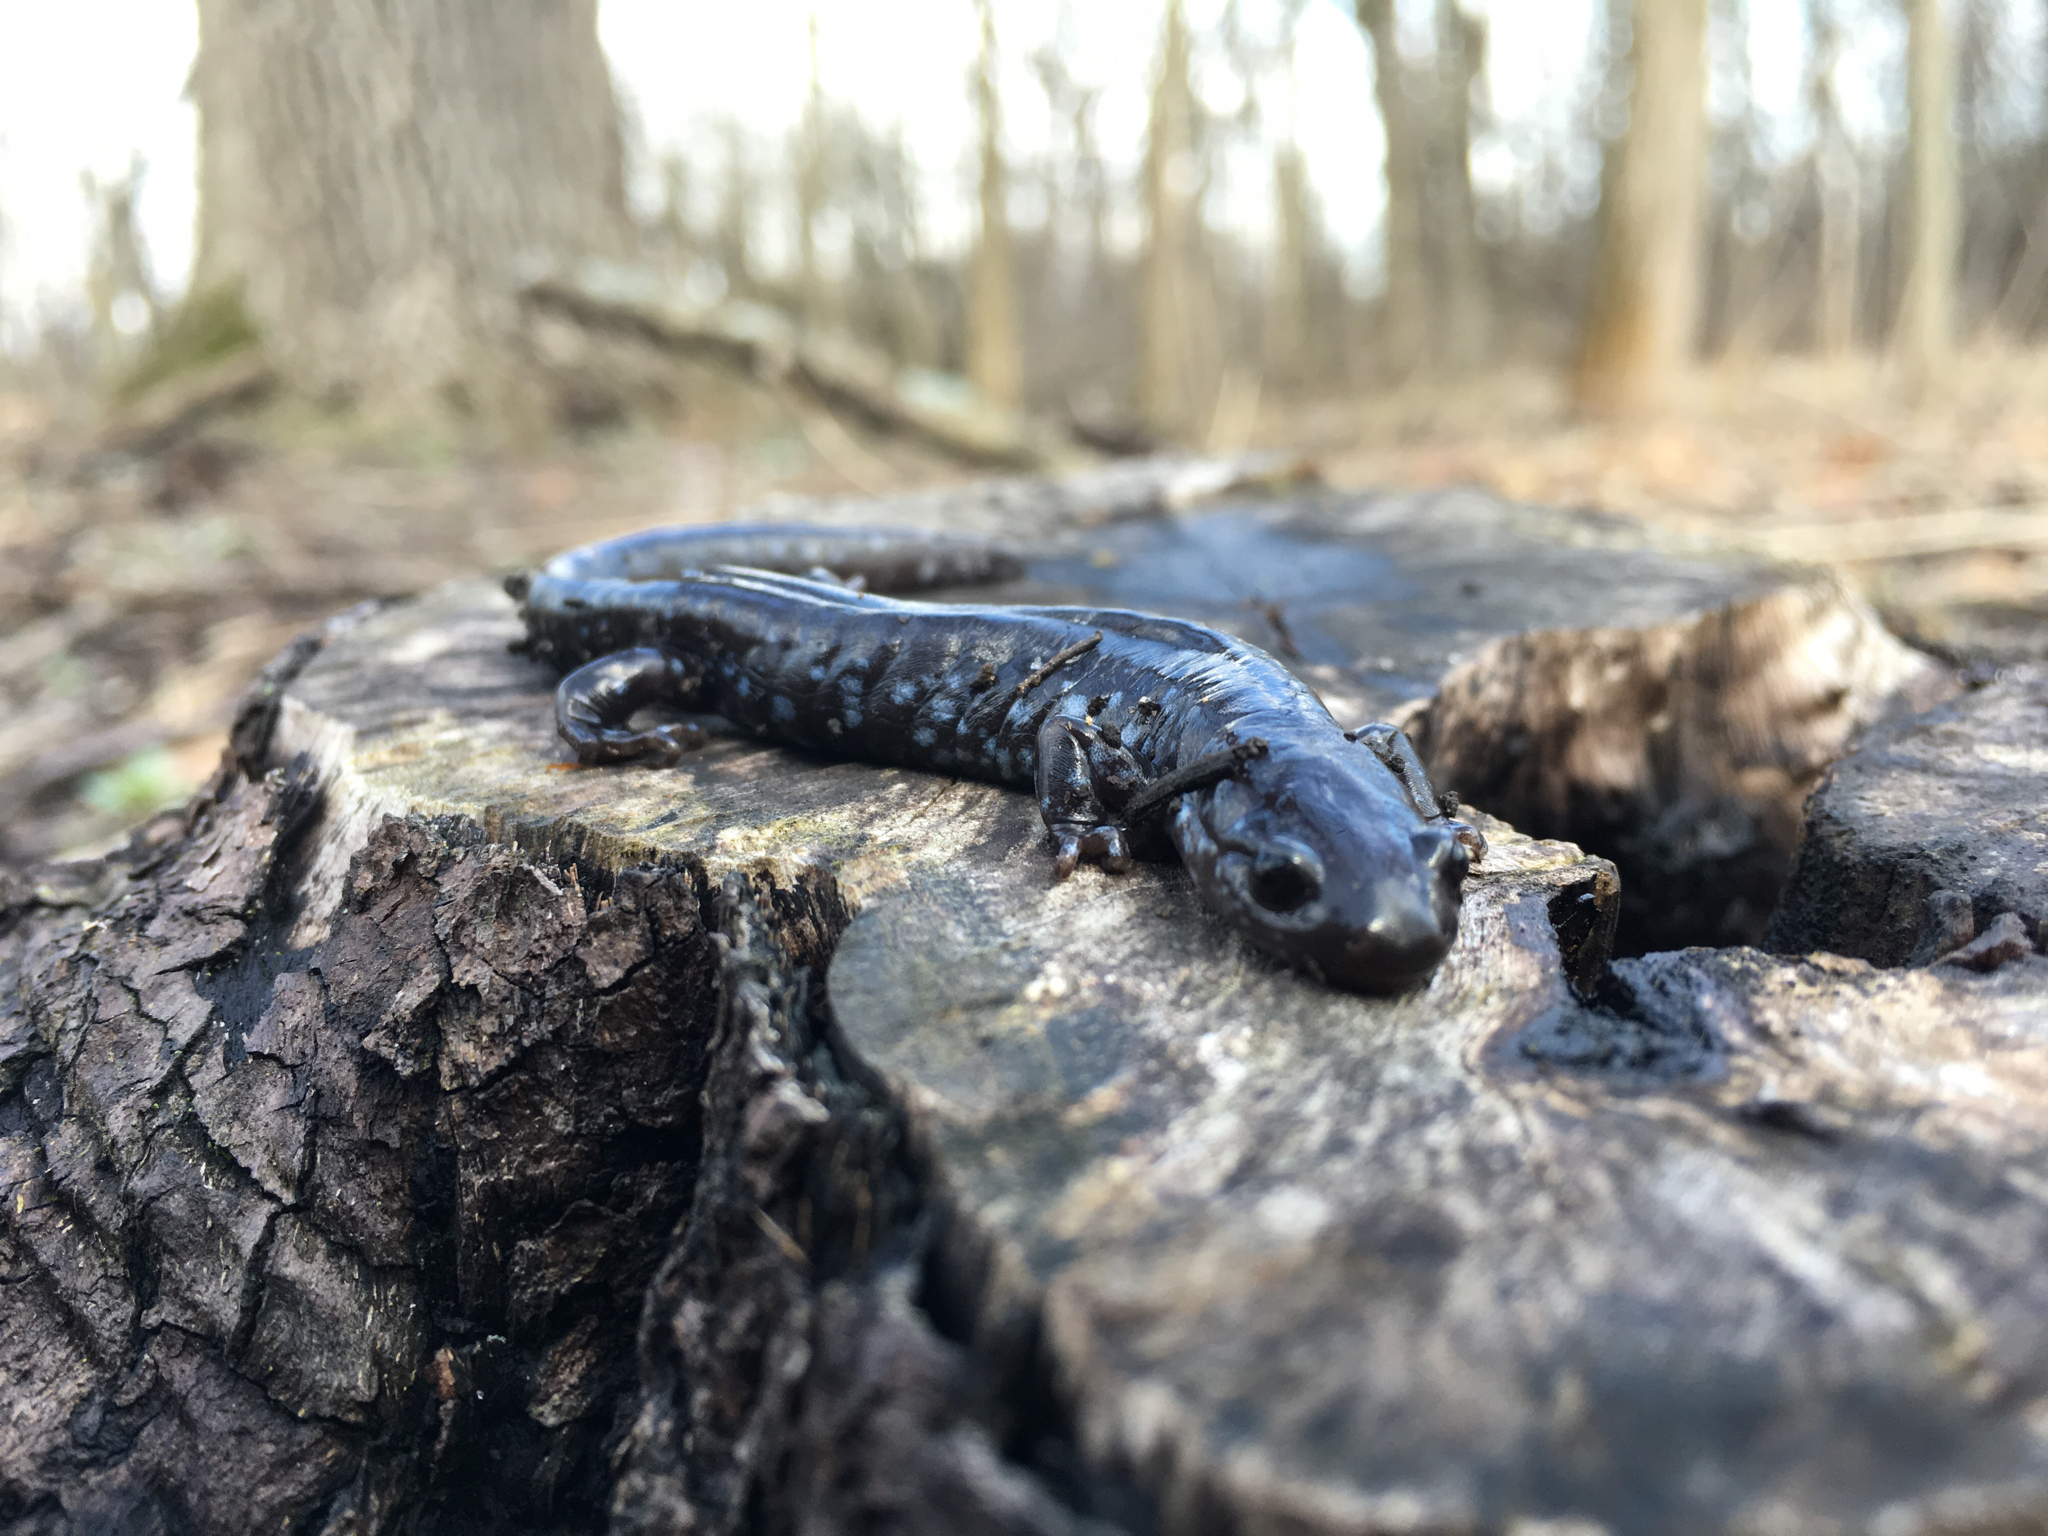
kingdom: Animalia
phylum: Chordata
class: Amphibia
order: Caudata
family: Ambystomatidae
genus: Ambystoma
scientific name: Ambystoma laterale
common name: Blue-spotted salamander
